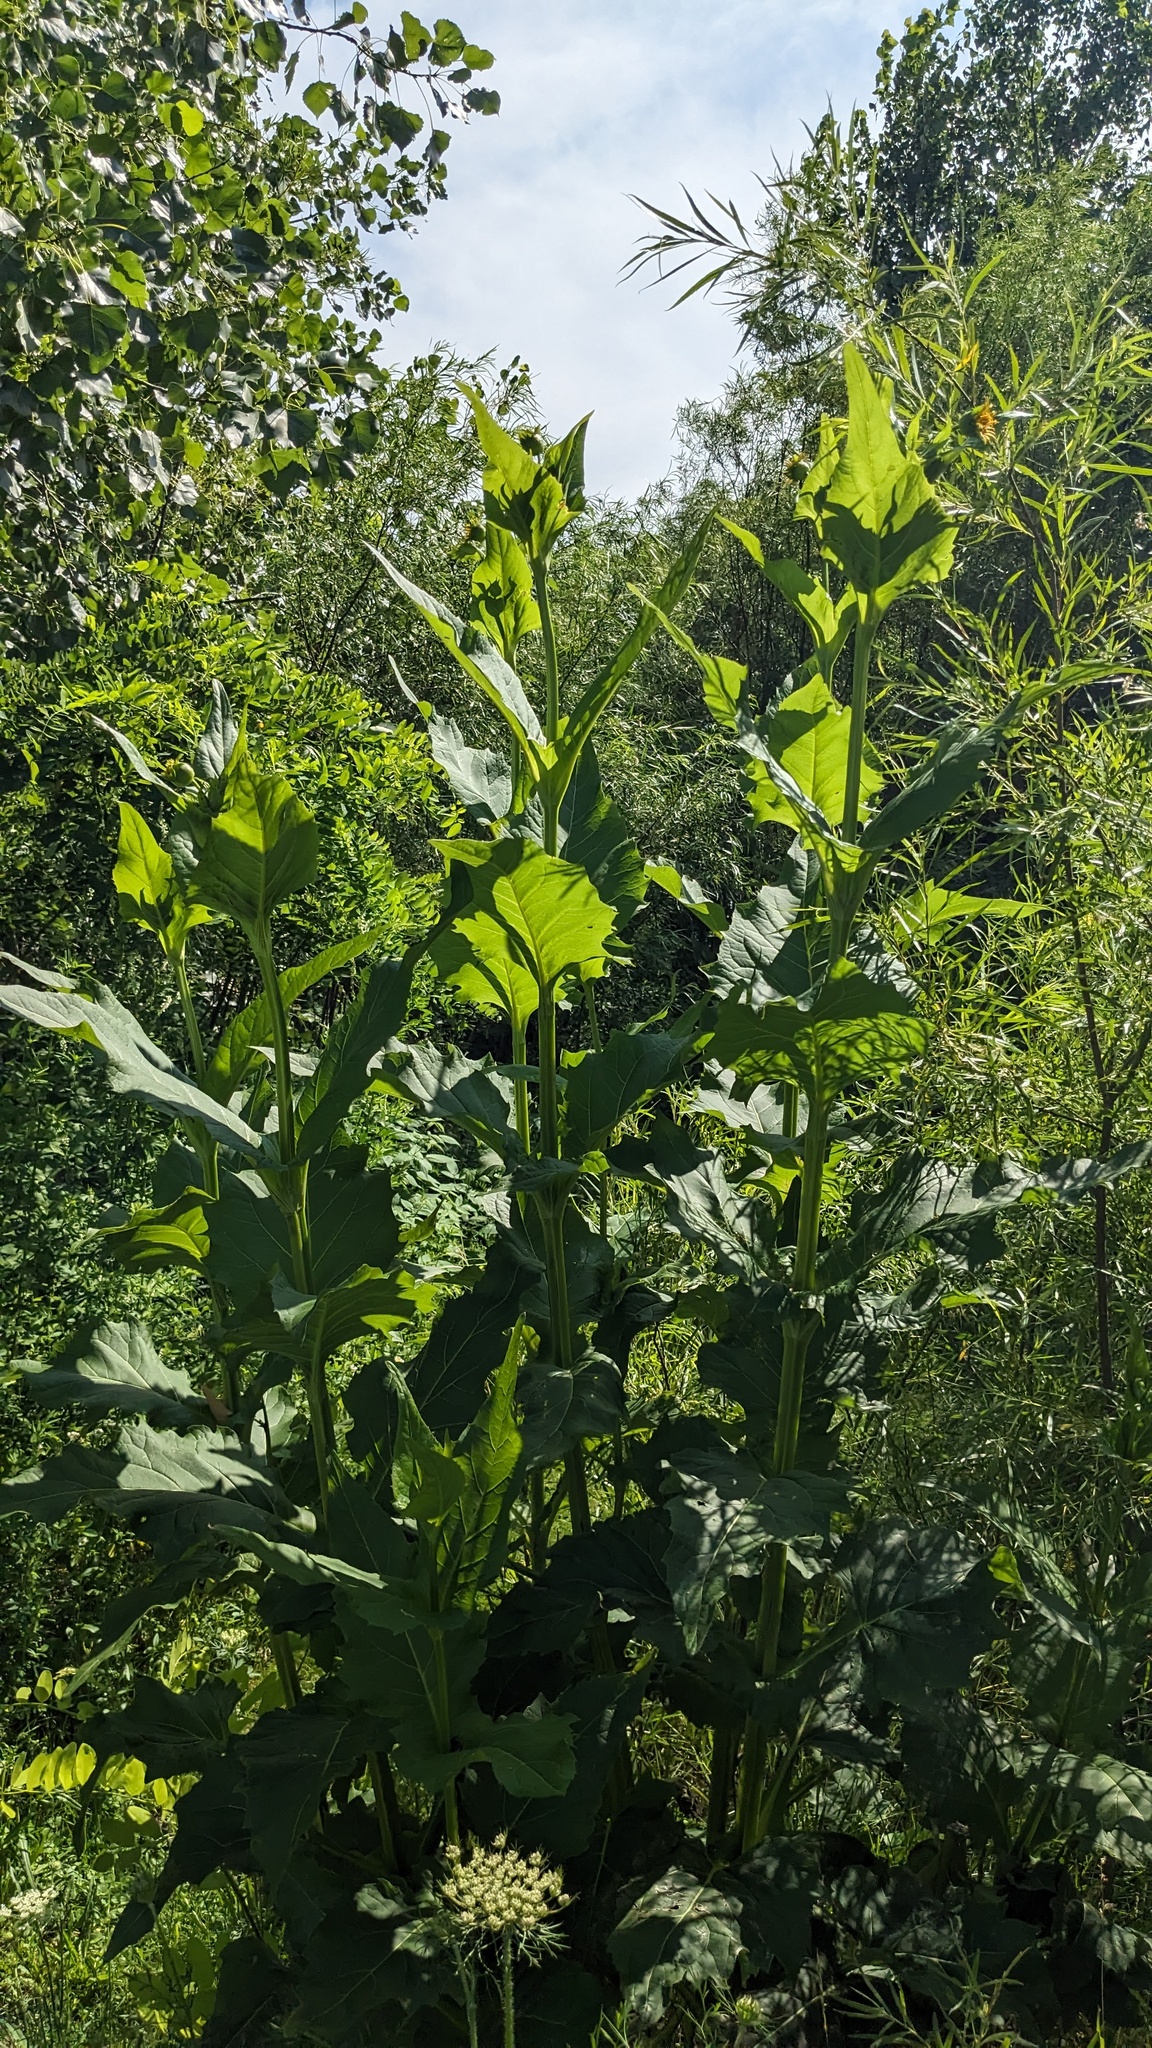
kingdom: Plantae
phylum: Tracheophyta
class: Magnoliopsida
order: Asterales
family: Asteraceae
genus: Silphium
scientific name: Silphium perfoliatum
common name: Cup-plant
